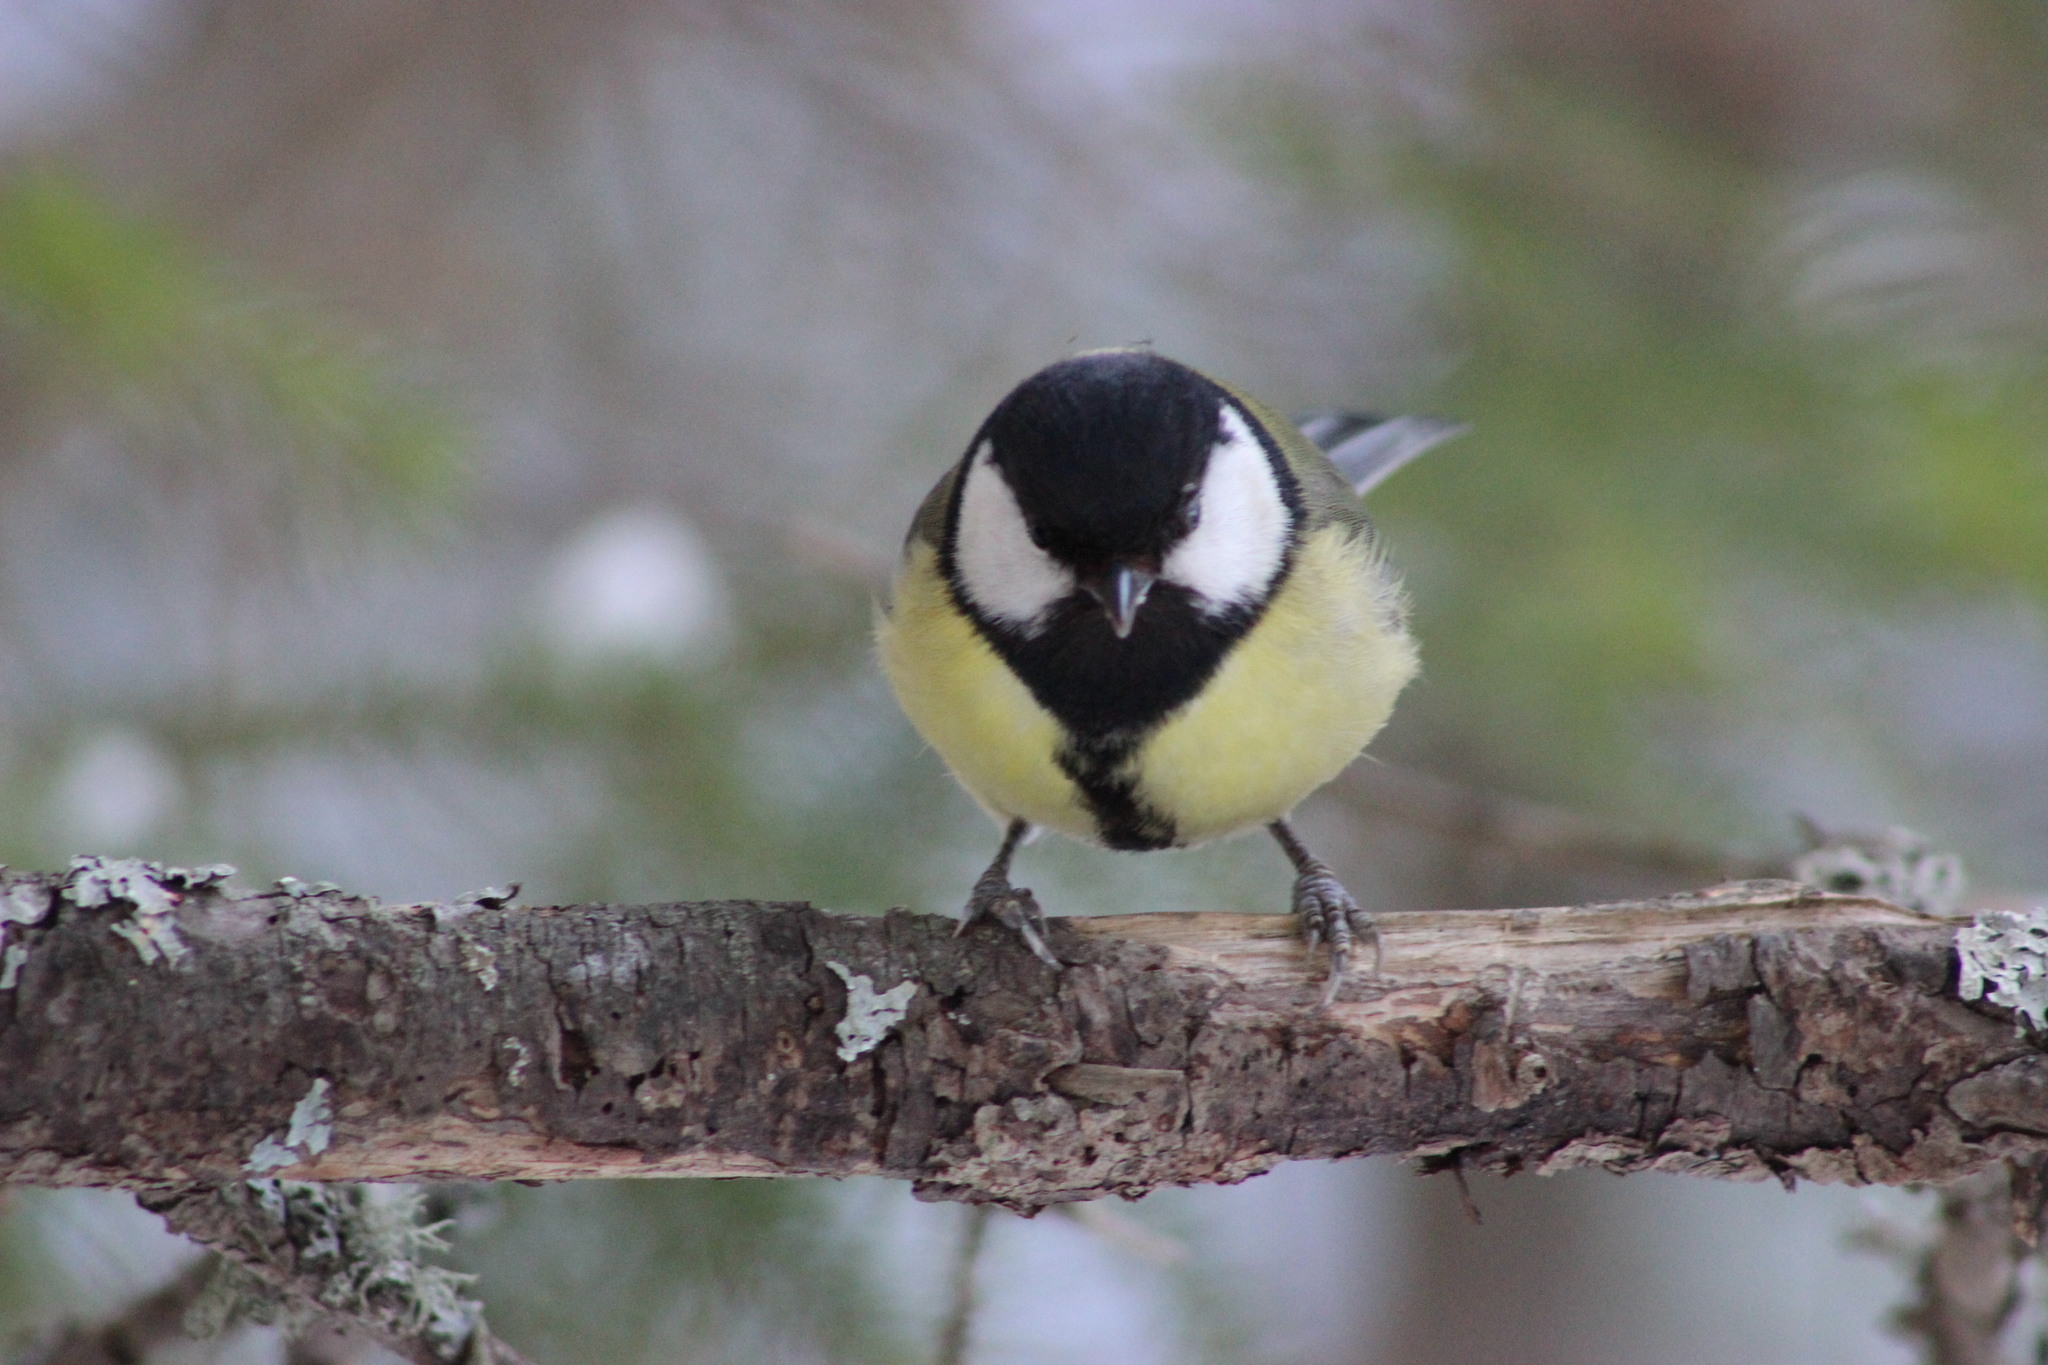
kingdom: Animalia
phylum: Chordata
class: Aves
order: Passeriformes
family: Paridae
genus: Parus
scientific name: Parus major
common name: Great tit
